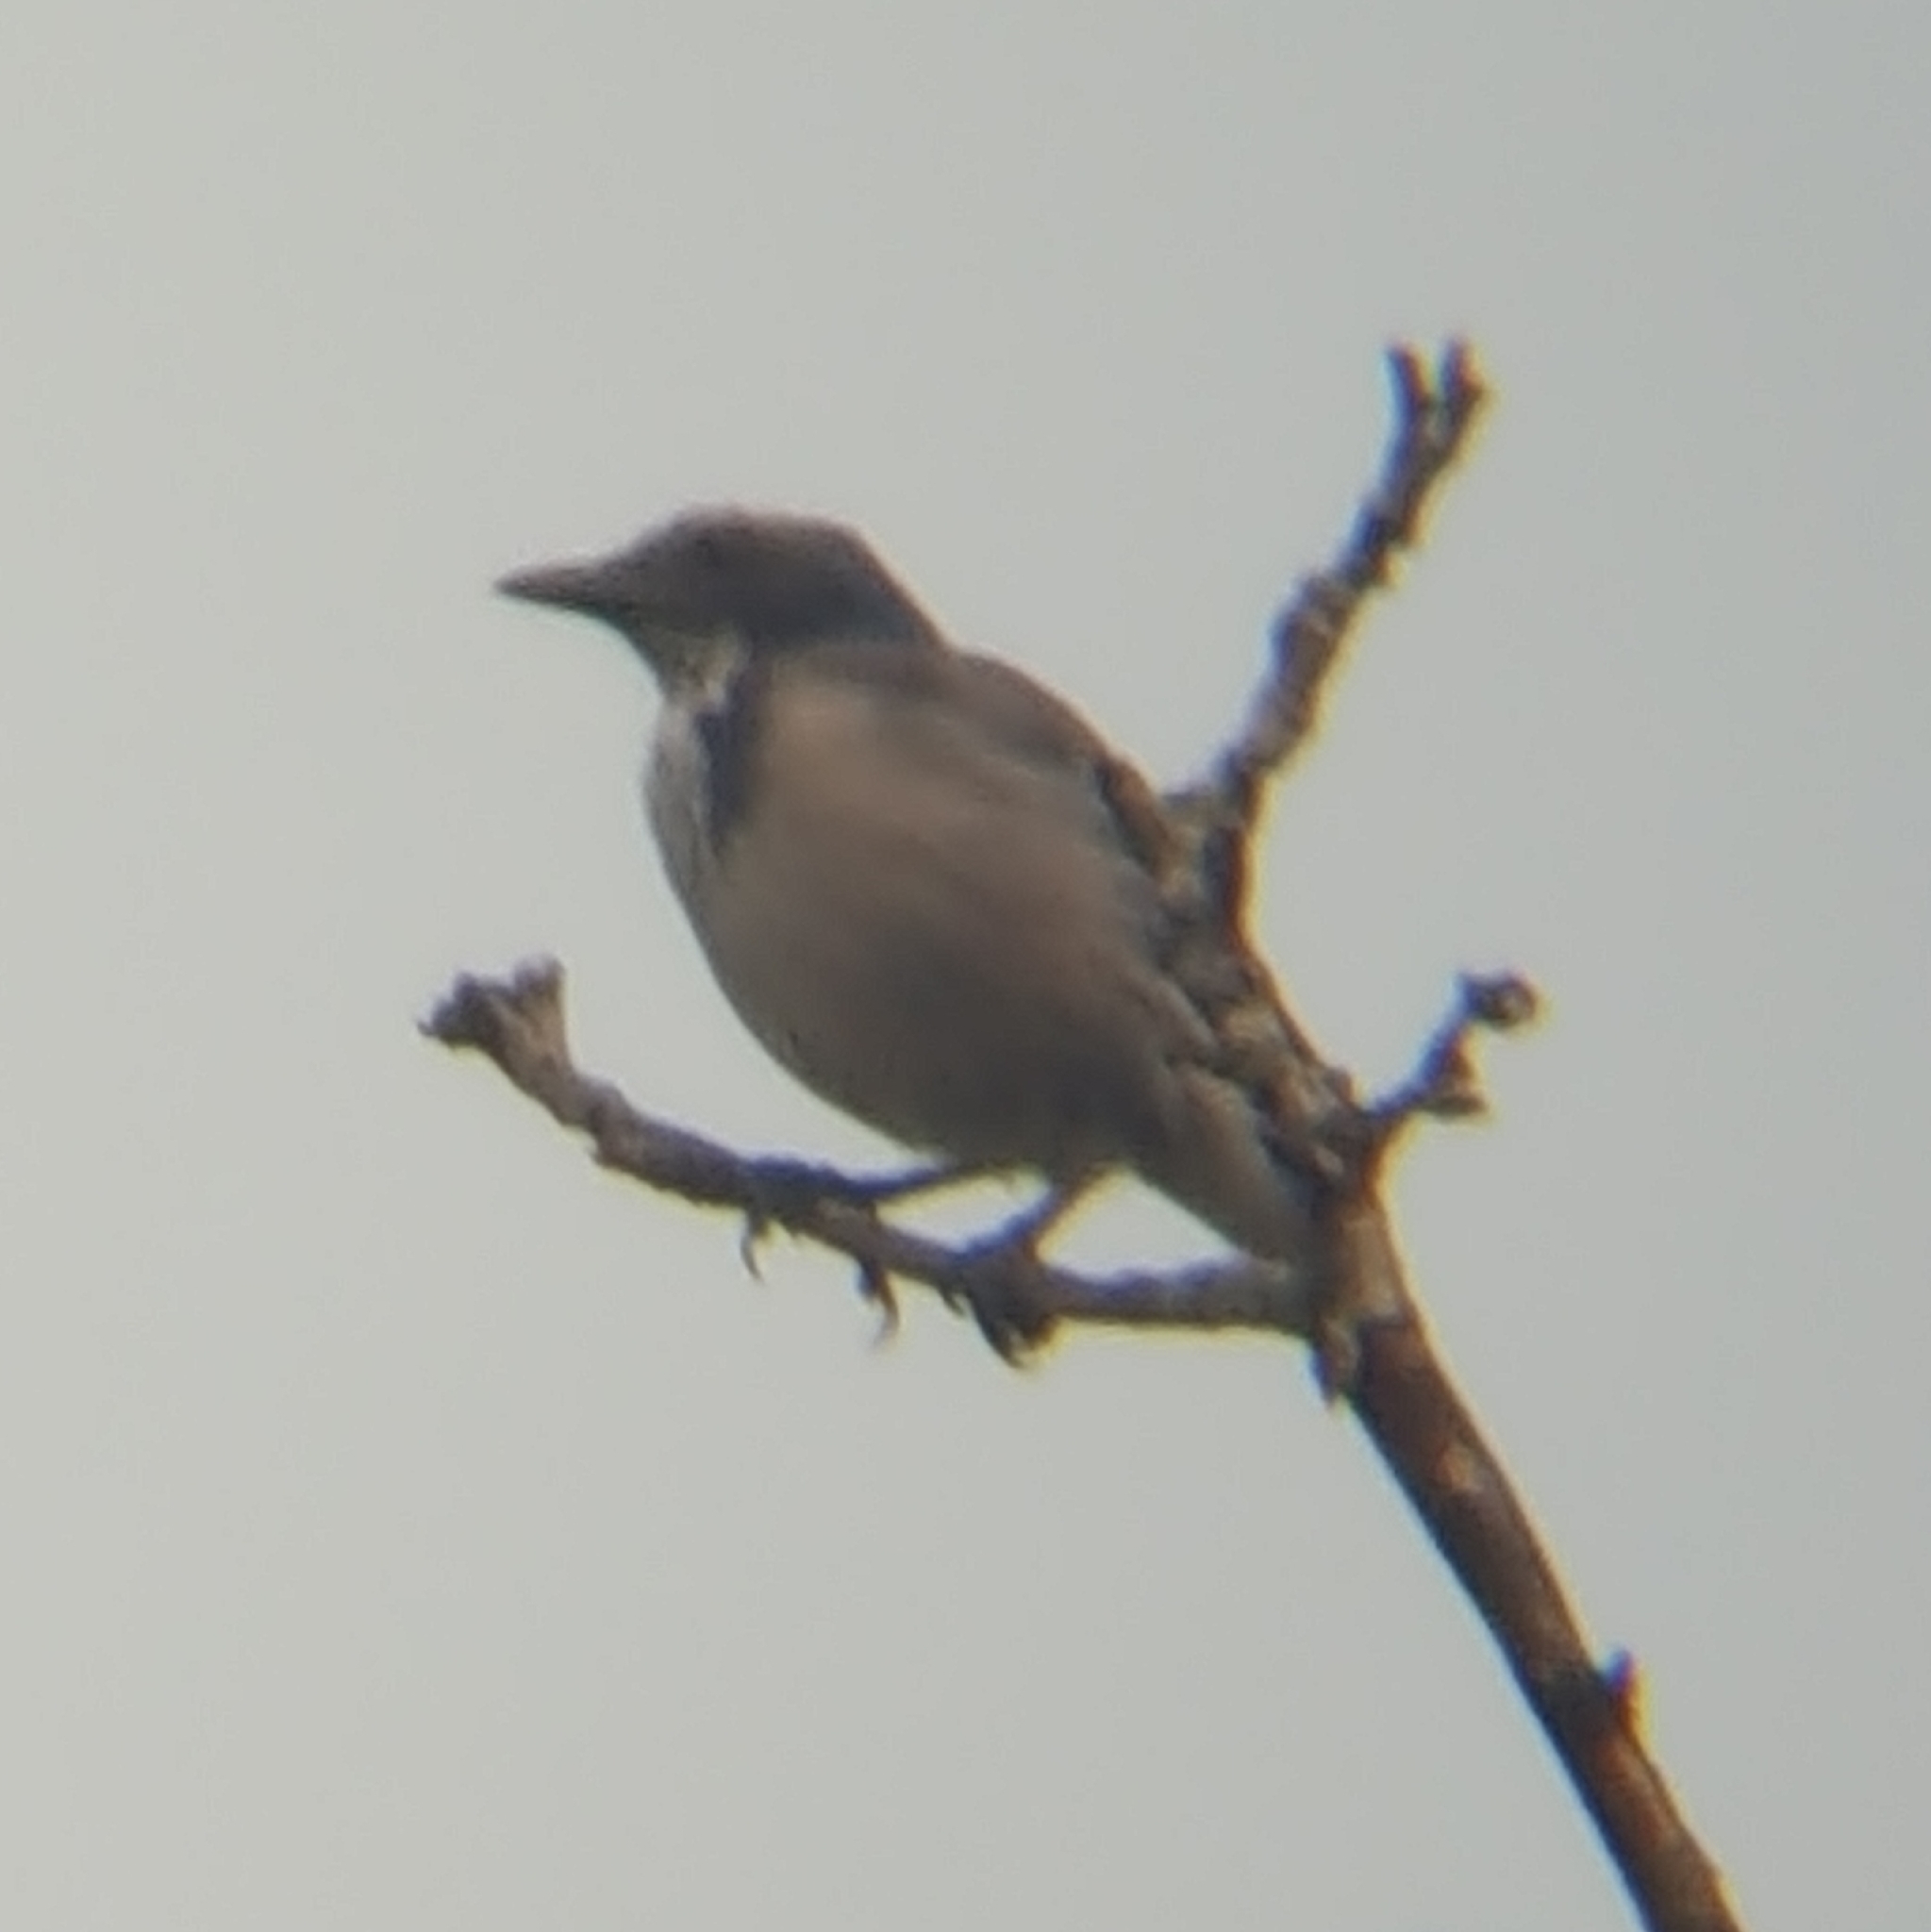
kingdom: Animalia
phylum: Chordata
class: Aves
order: Passeriformes
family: Corvidae
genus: Aphelocoma
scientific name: Aphelocoma californica
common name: California scrub-jay
